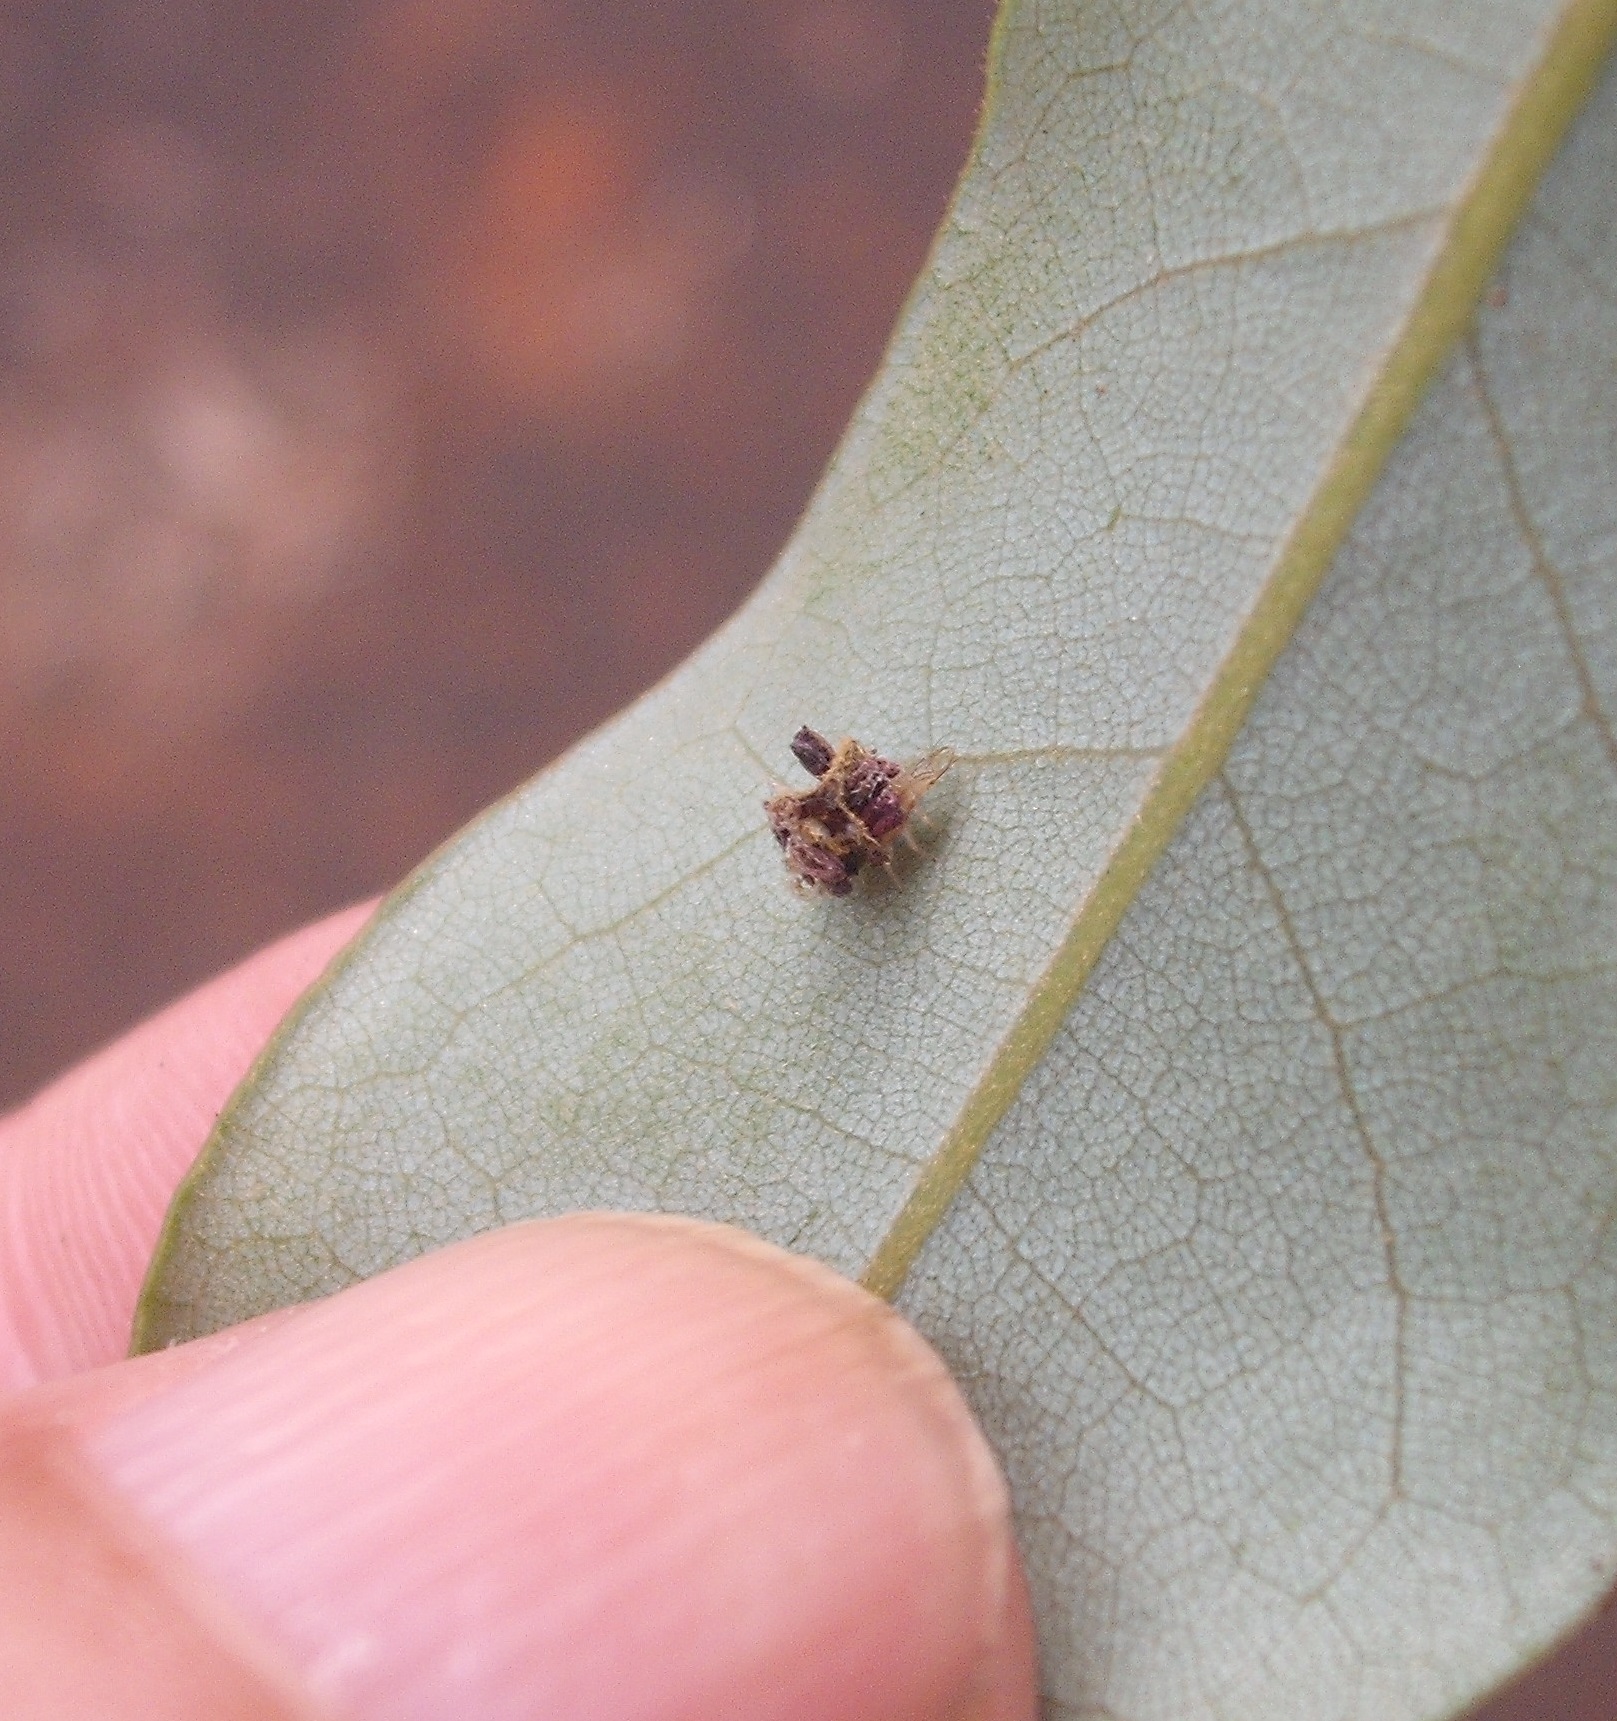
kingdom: Animalia
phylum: Arthropoda
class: Insecta
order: Neuroptera
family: Chrysopidae
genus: Mallada
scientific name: Mallada basalis
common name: Green lacewing
